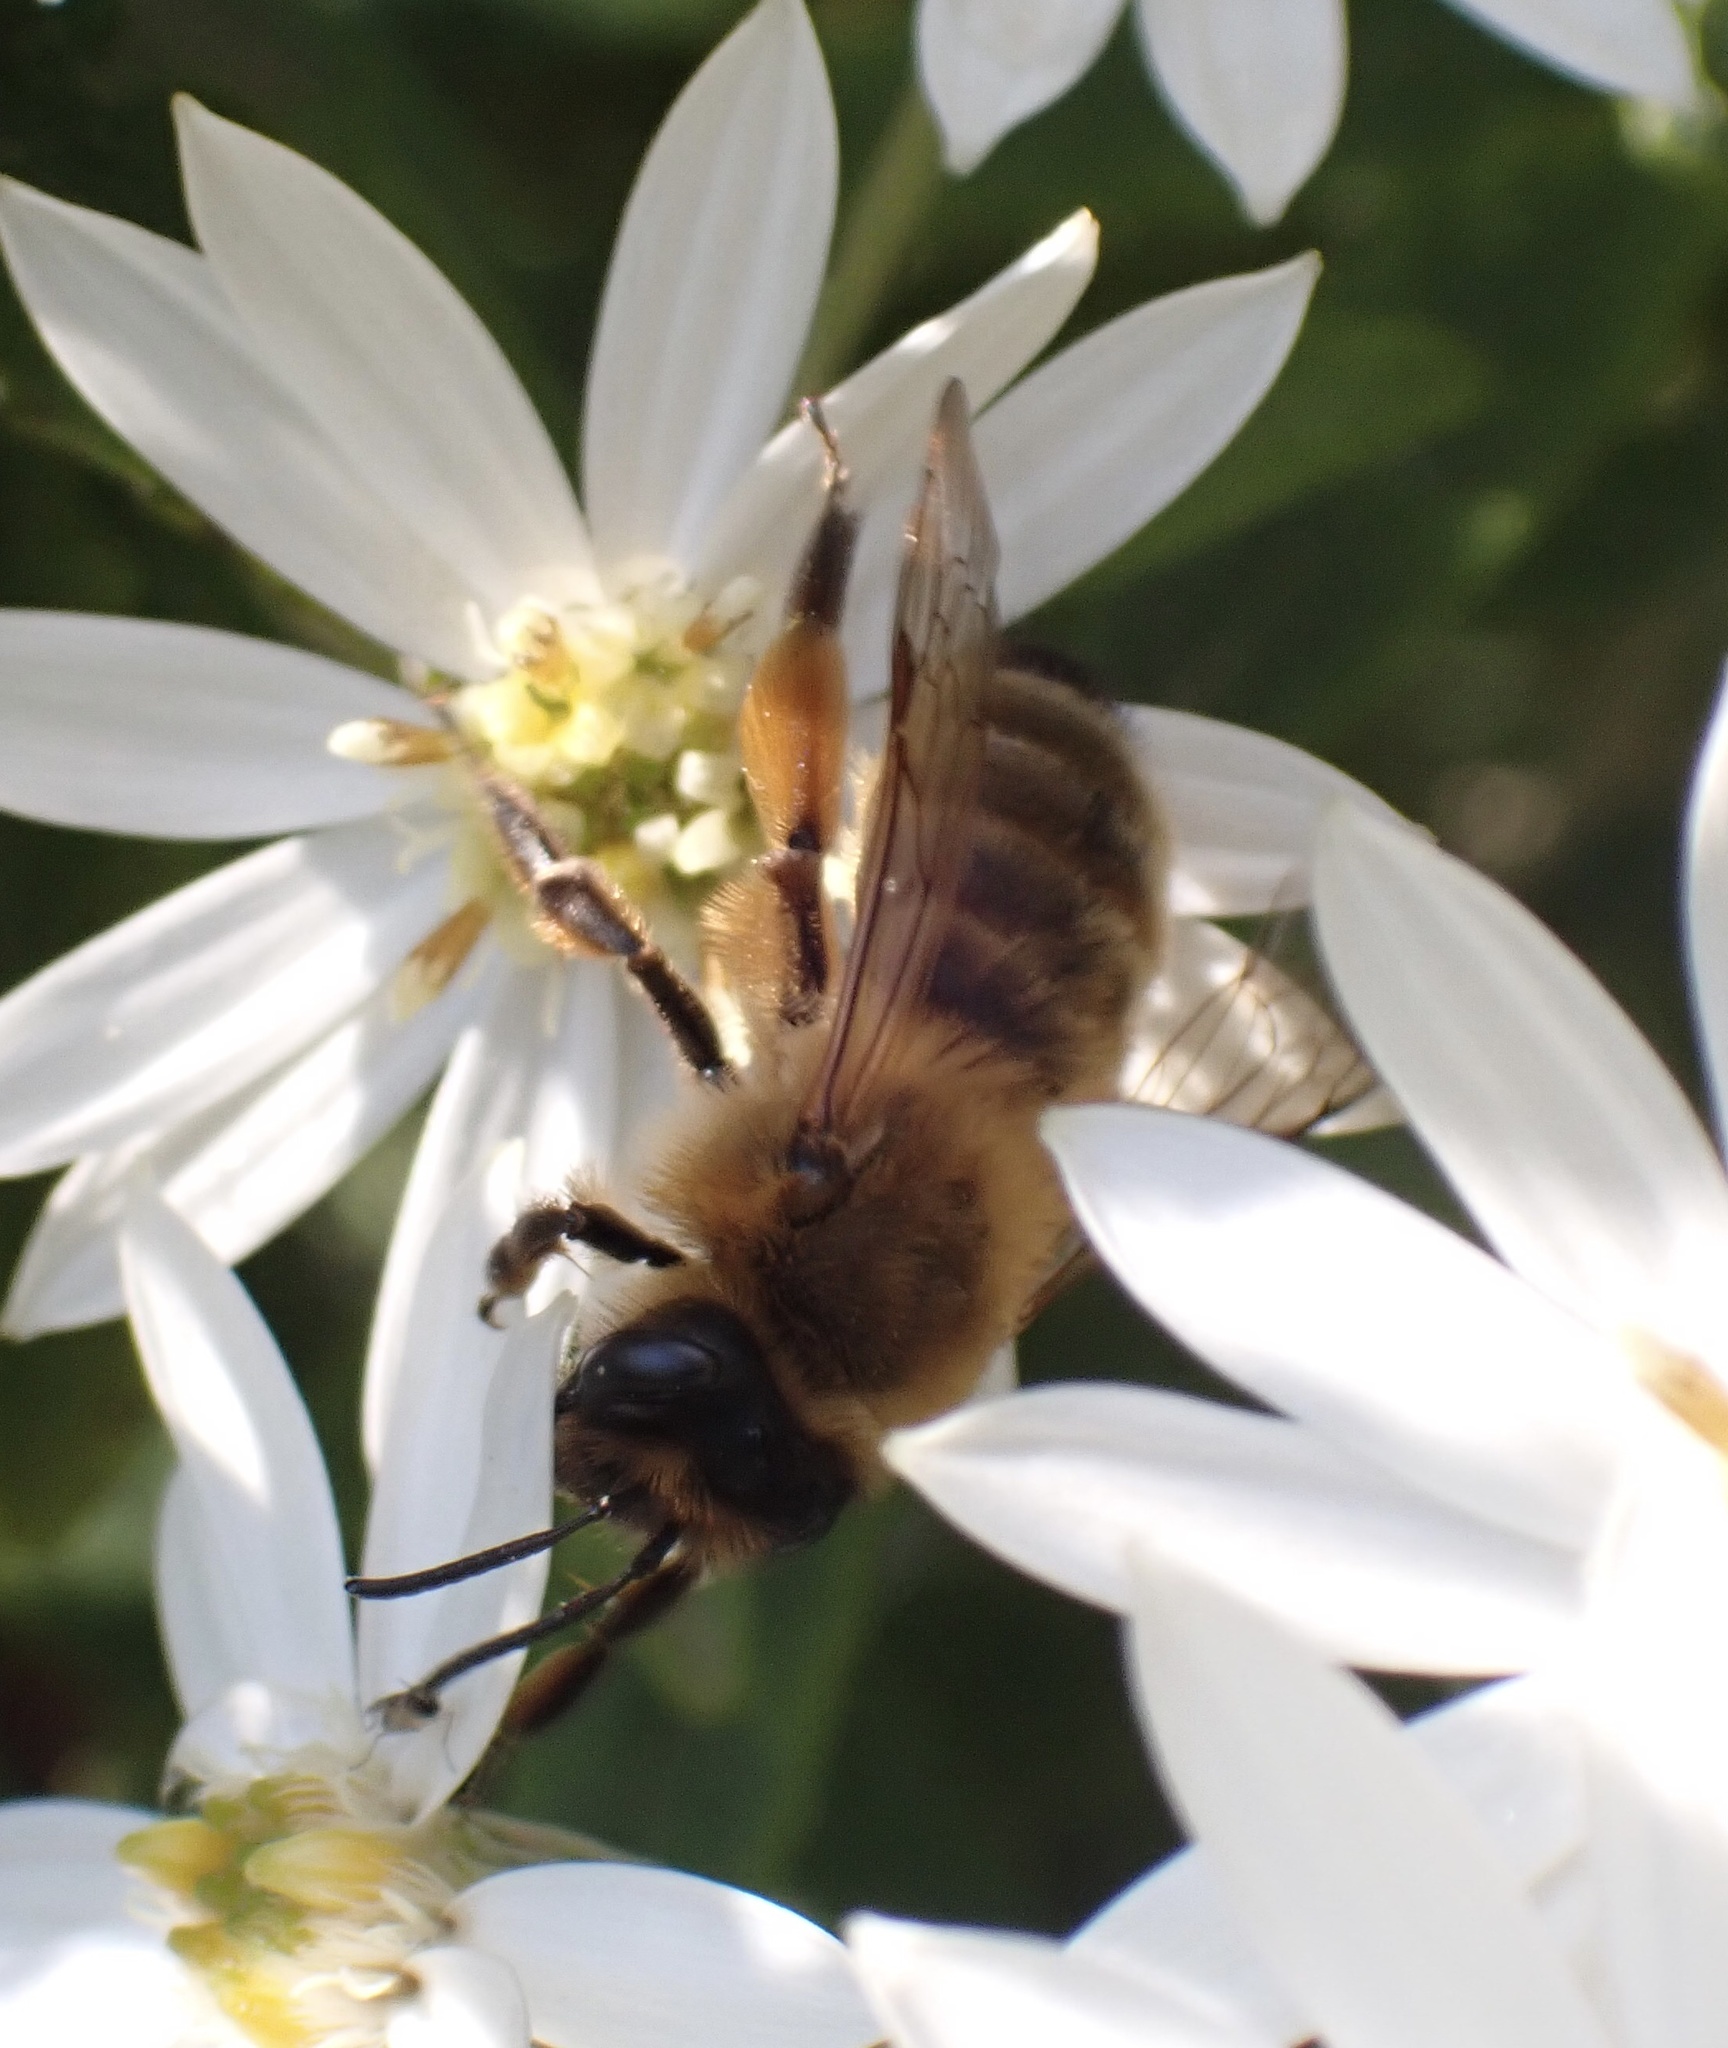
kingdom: Animalia
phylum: Arthropoda
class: Insecta
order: Hymenoptera
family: Andrenidae
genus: Andrena
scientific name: Andrena nigroaenea
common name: Buffish mining bee
